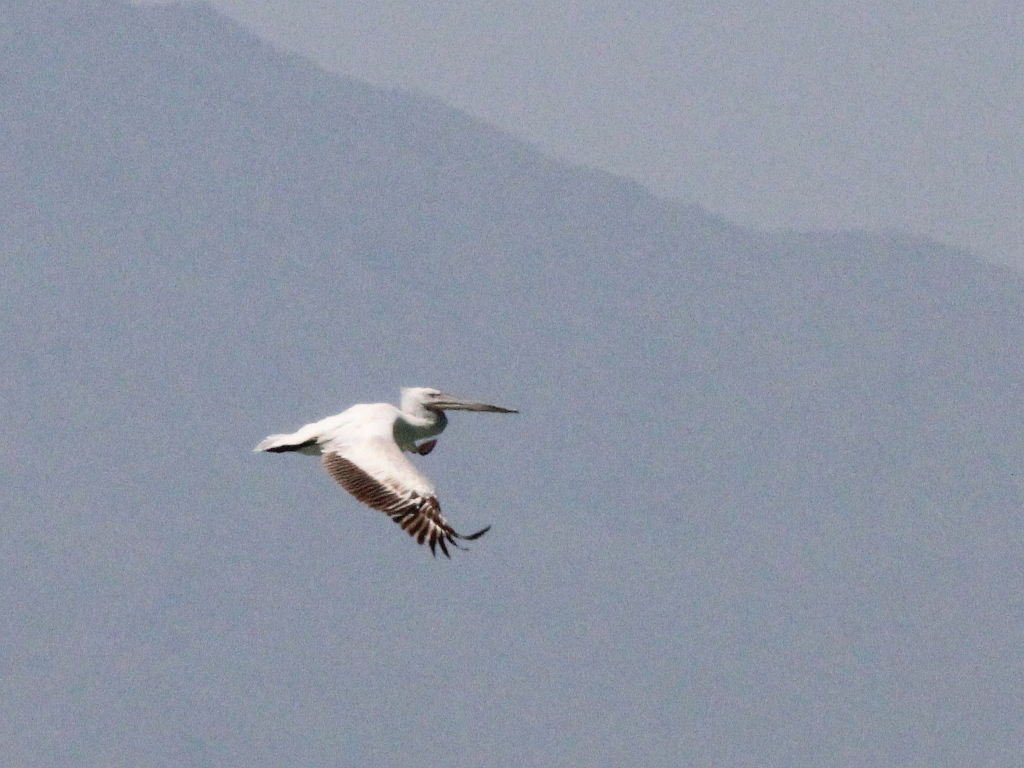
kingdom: Animalia
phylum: Chordata
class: Aves
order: Pelecaniformes
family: Pelecanidae
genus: Pelecanus
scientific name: Pelecanus crispus
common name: Dalmatian pelican
